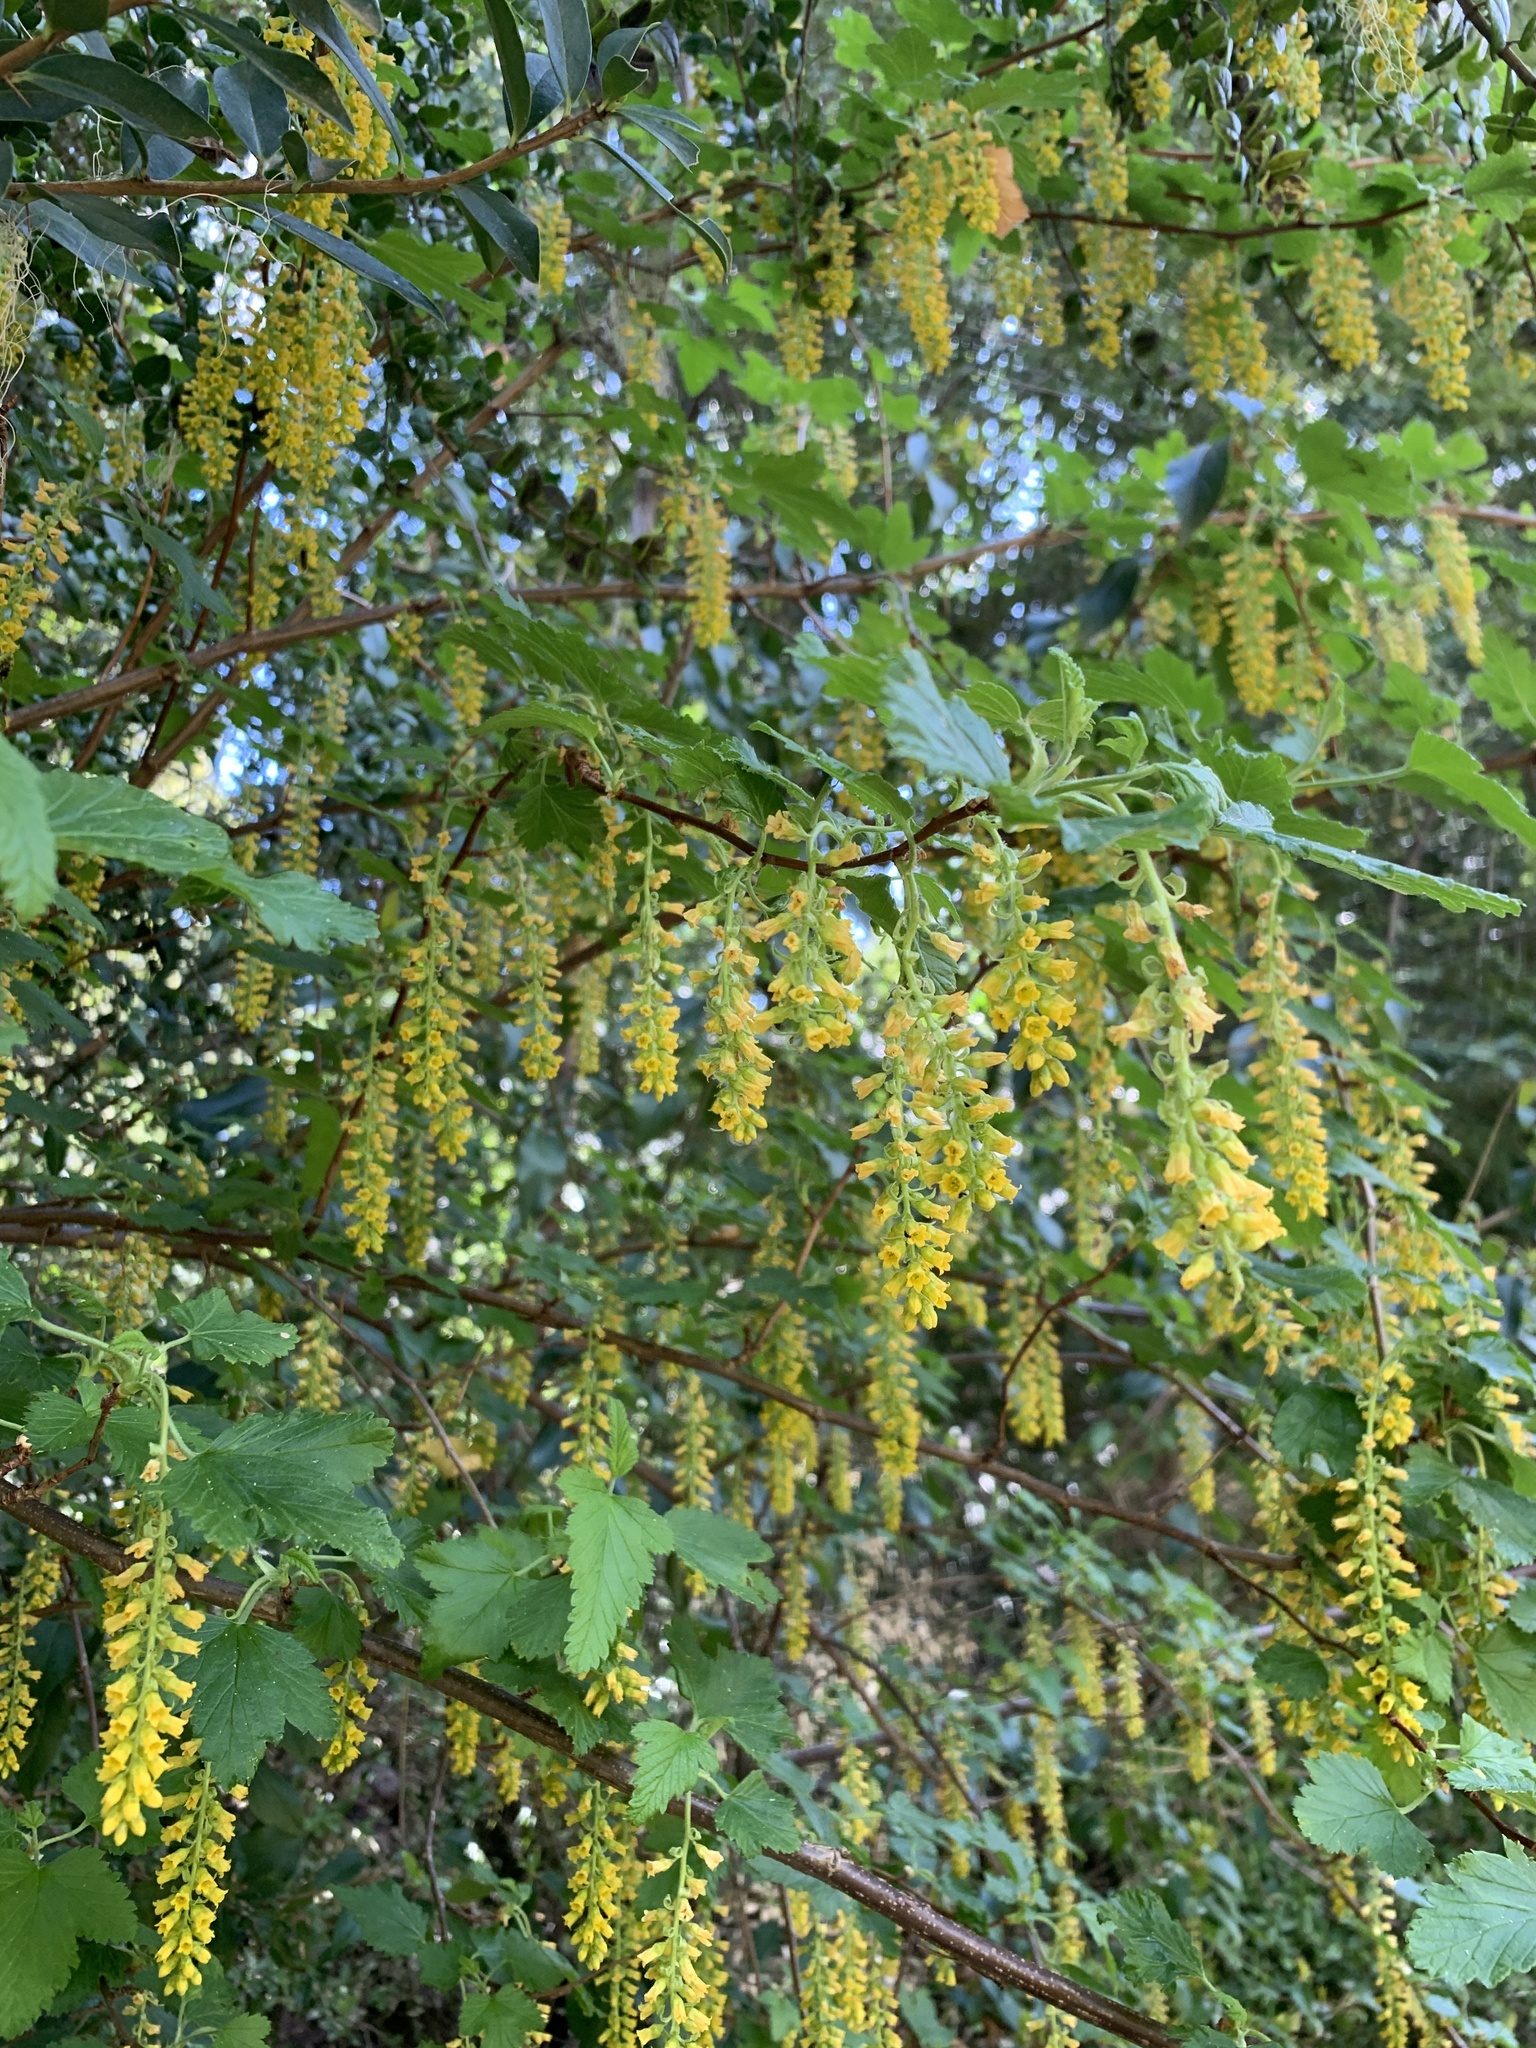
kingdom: Plantae
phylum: Tracheophyta
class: Magnoliopsida
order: Saxifragales
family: Grossulariaceae
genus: Ribes
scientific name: Ribes magellanicum
